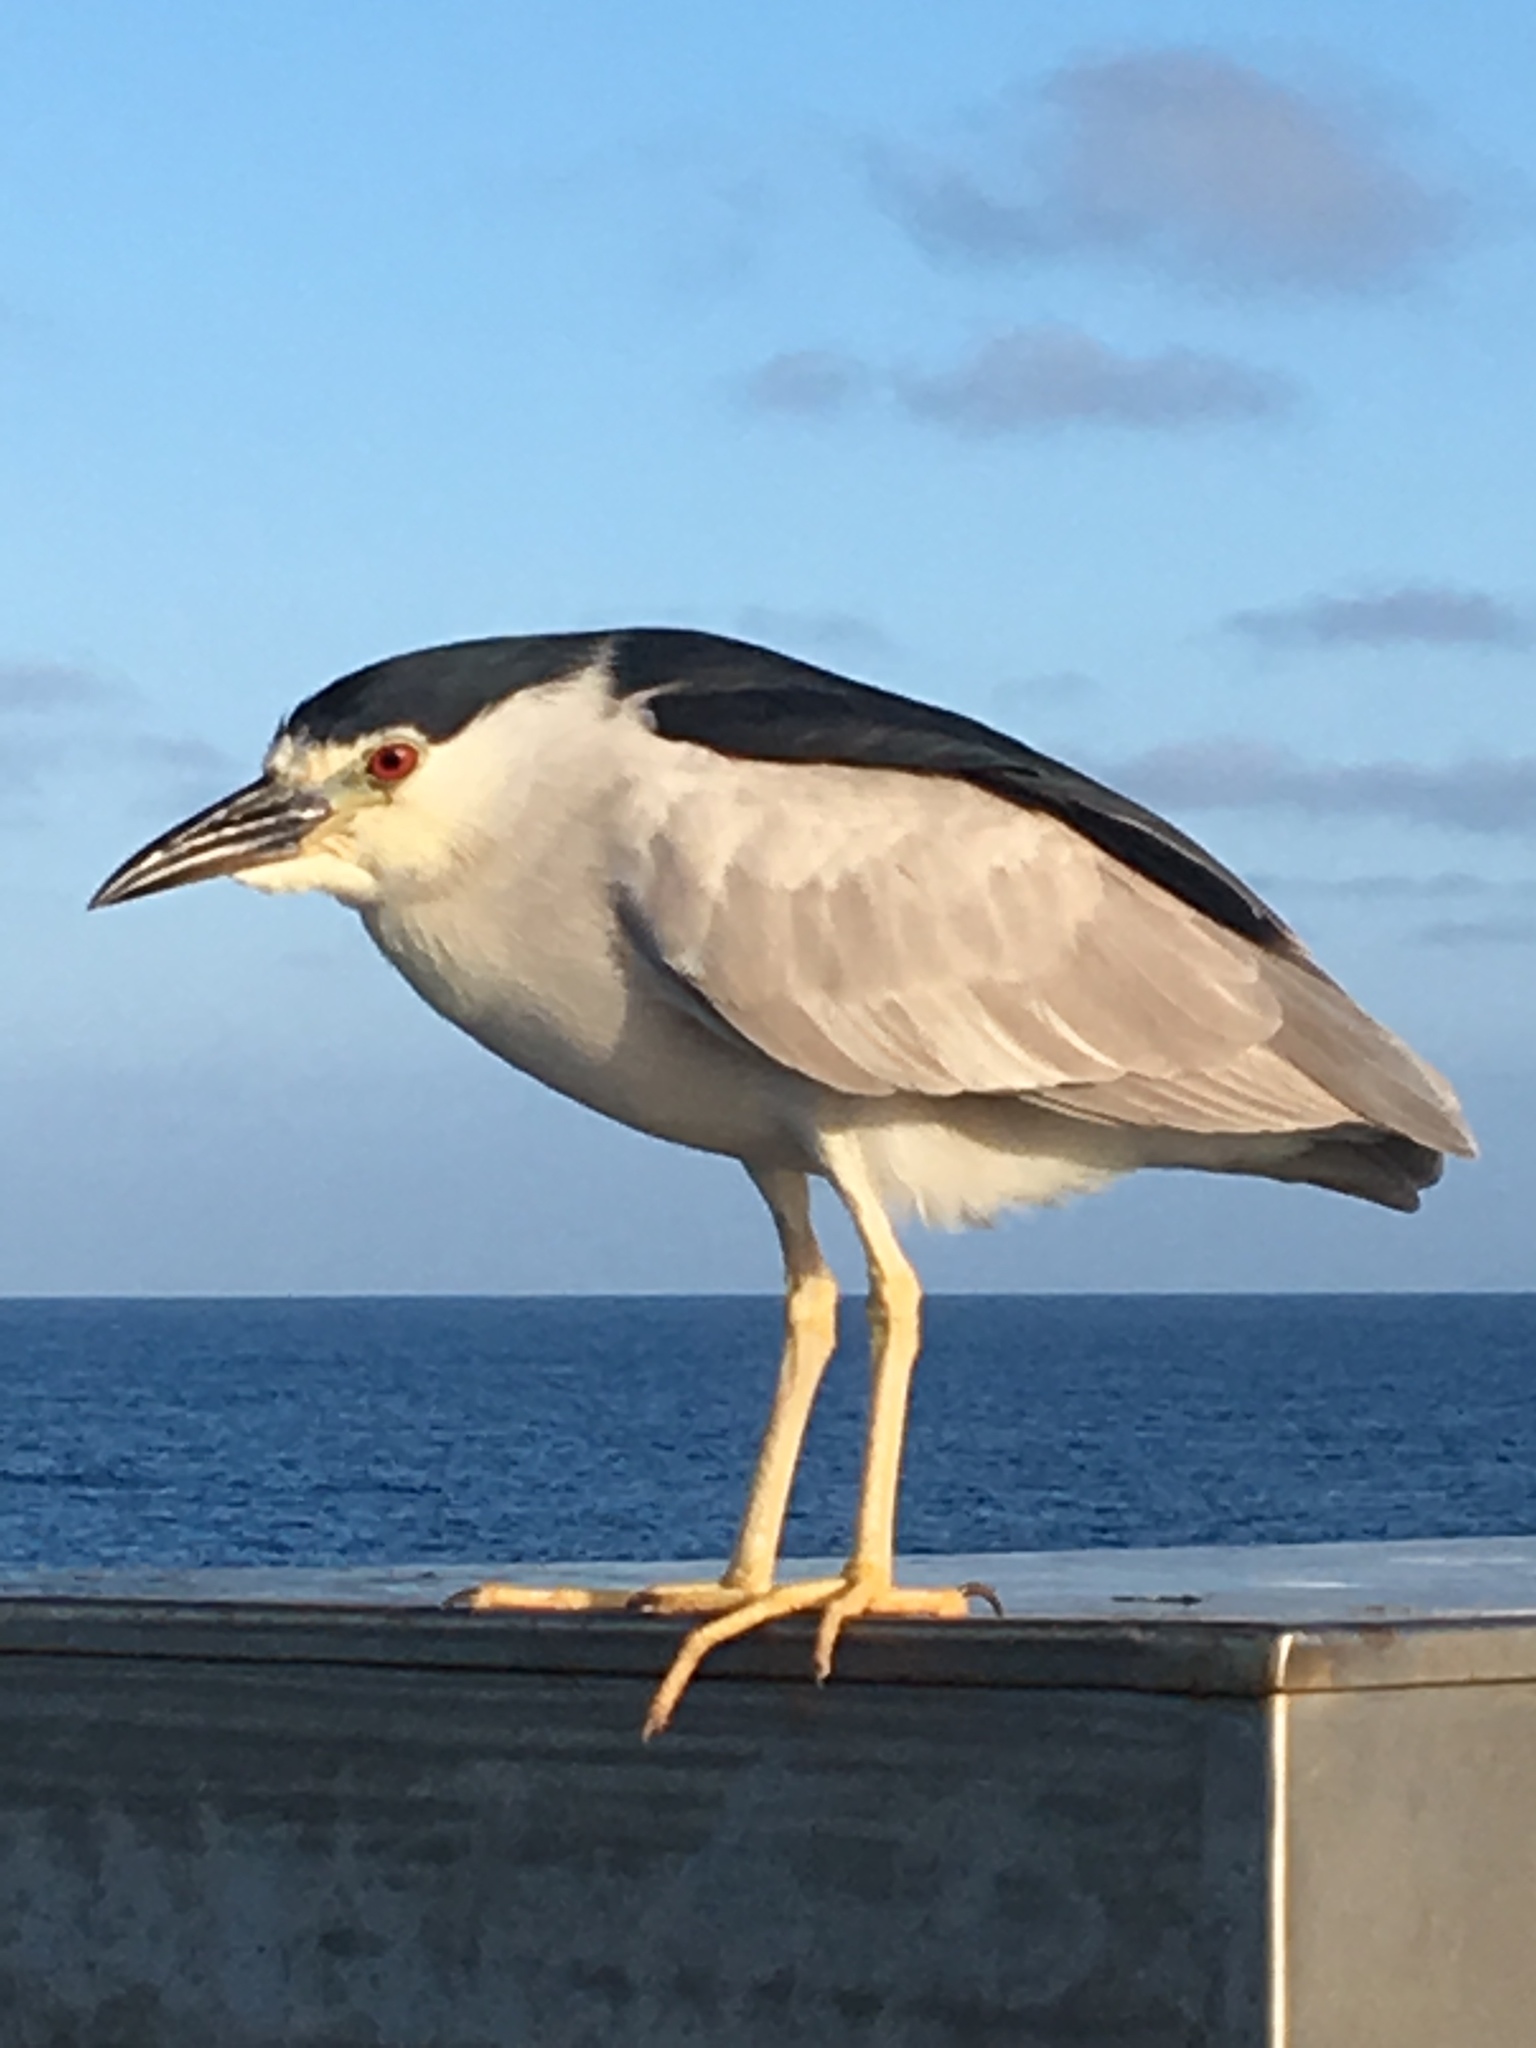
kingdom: Animalia
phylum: Chordata
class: Aves
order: Pelecaniformes
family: Ardeidae
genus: Nycticorax
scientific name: Nycticorax nycticorax
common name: Black-crowned night heron
